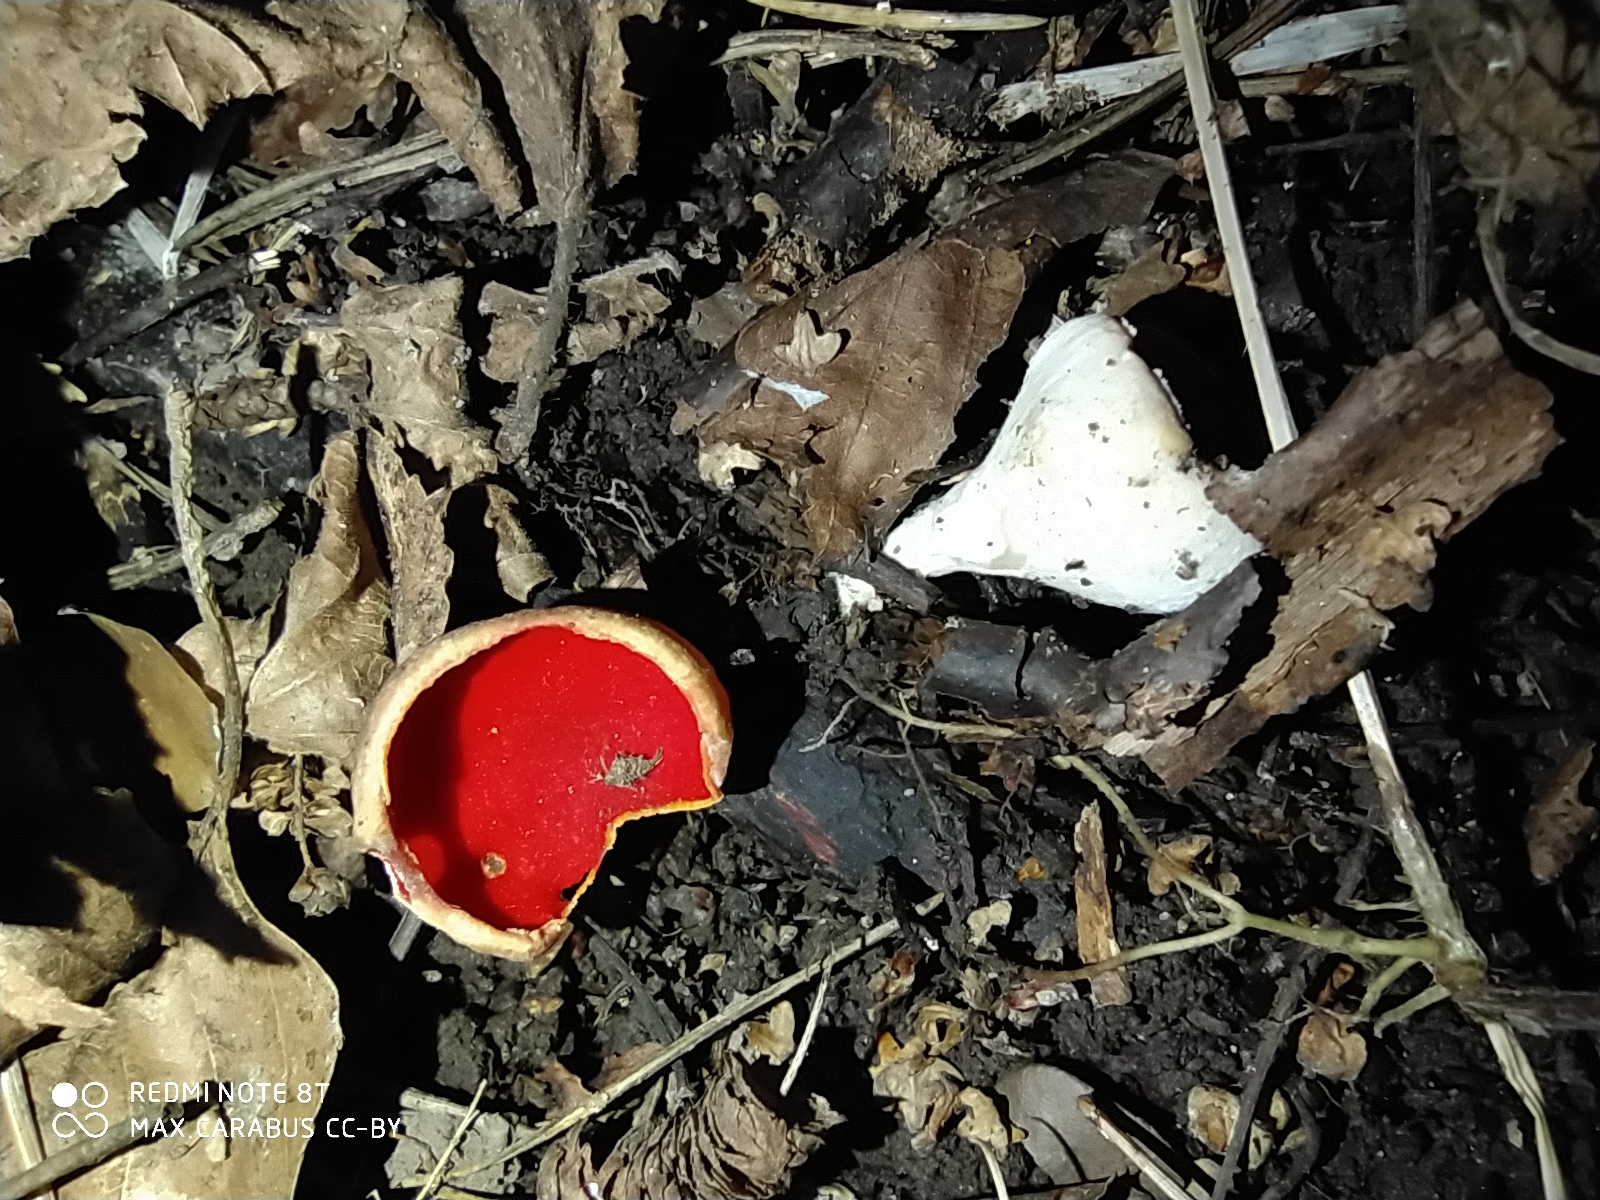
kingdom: Fungi
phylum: Ascomycota
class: Pezizomycetes
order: Pezizales
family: Sarcoscyphaceae
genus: Sarcoscypha
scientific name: Sarcoscypha austriaca
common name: Scarlet elfcup
